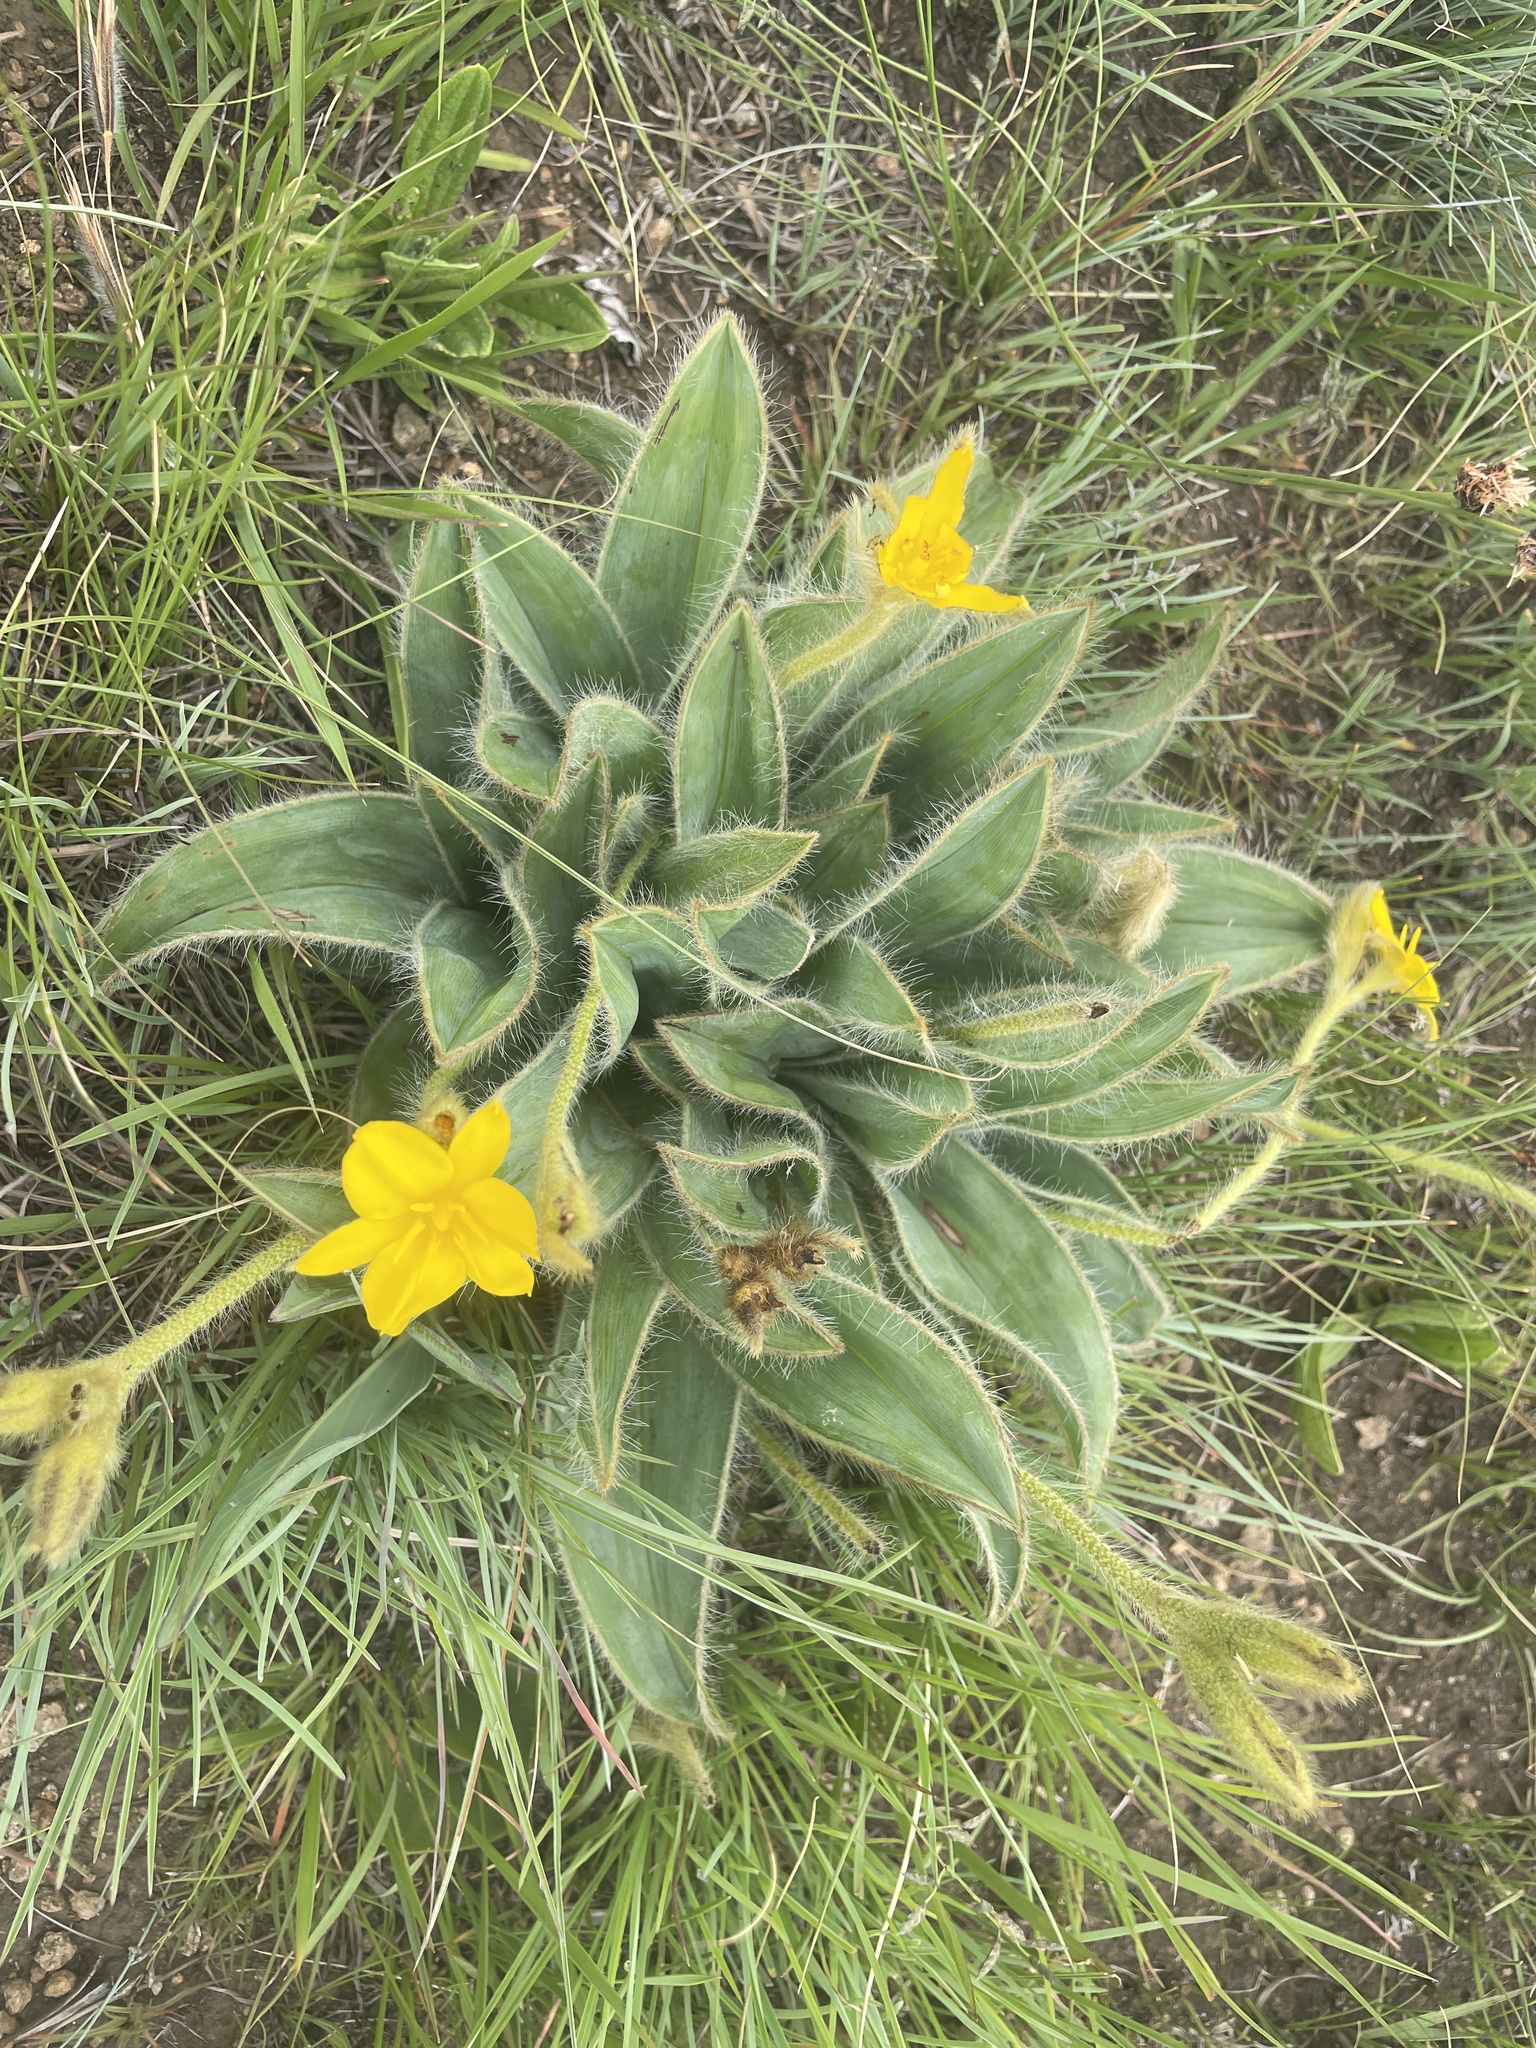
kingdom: Plantae
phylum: Tracheophyta
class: Liliopsida
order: Asparagales
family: Hypoxidaceae
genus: Hypoxis
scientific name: Hypoxis costata
